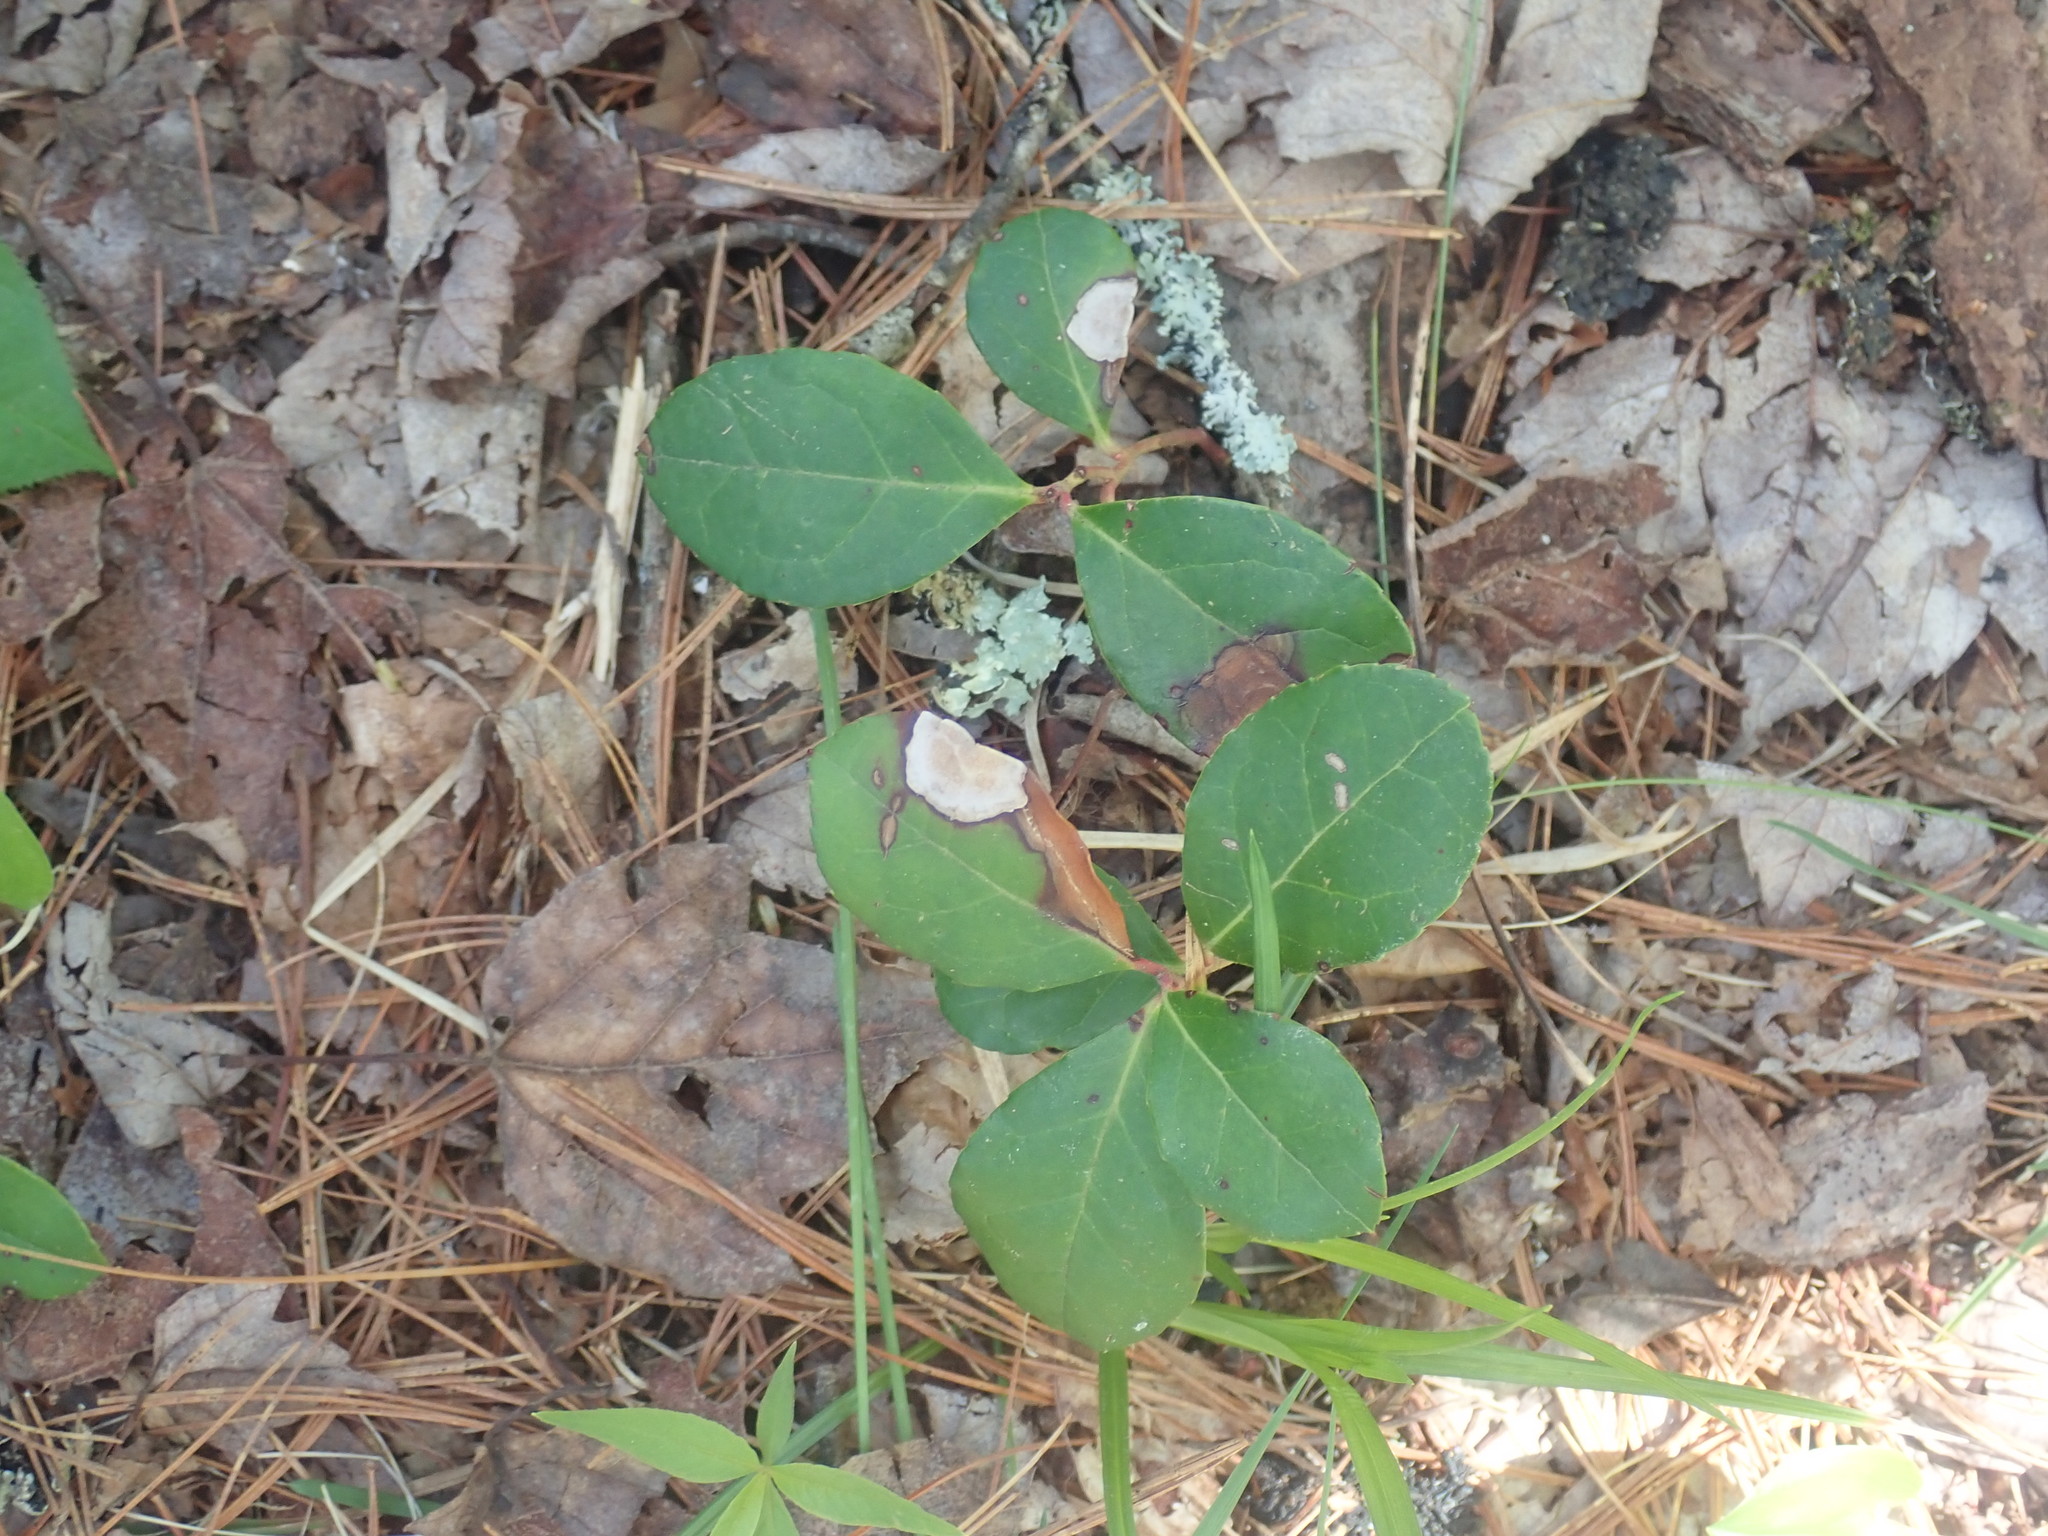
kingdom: Plantae
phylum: Tracheophyta
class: Magnoliopsida
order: Ericales
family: Ericaceae
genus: Gaultheria
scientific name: Gaultheria procumbens
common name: Checkerberry
